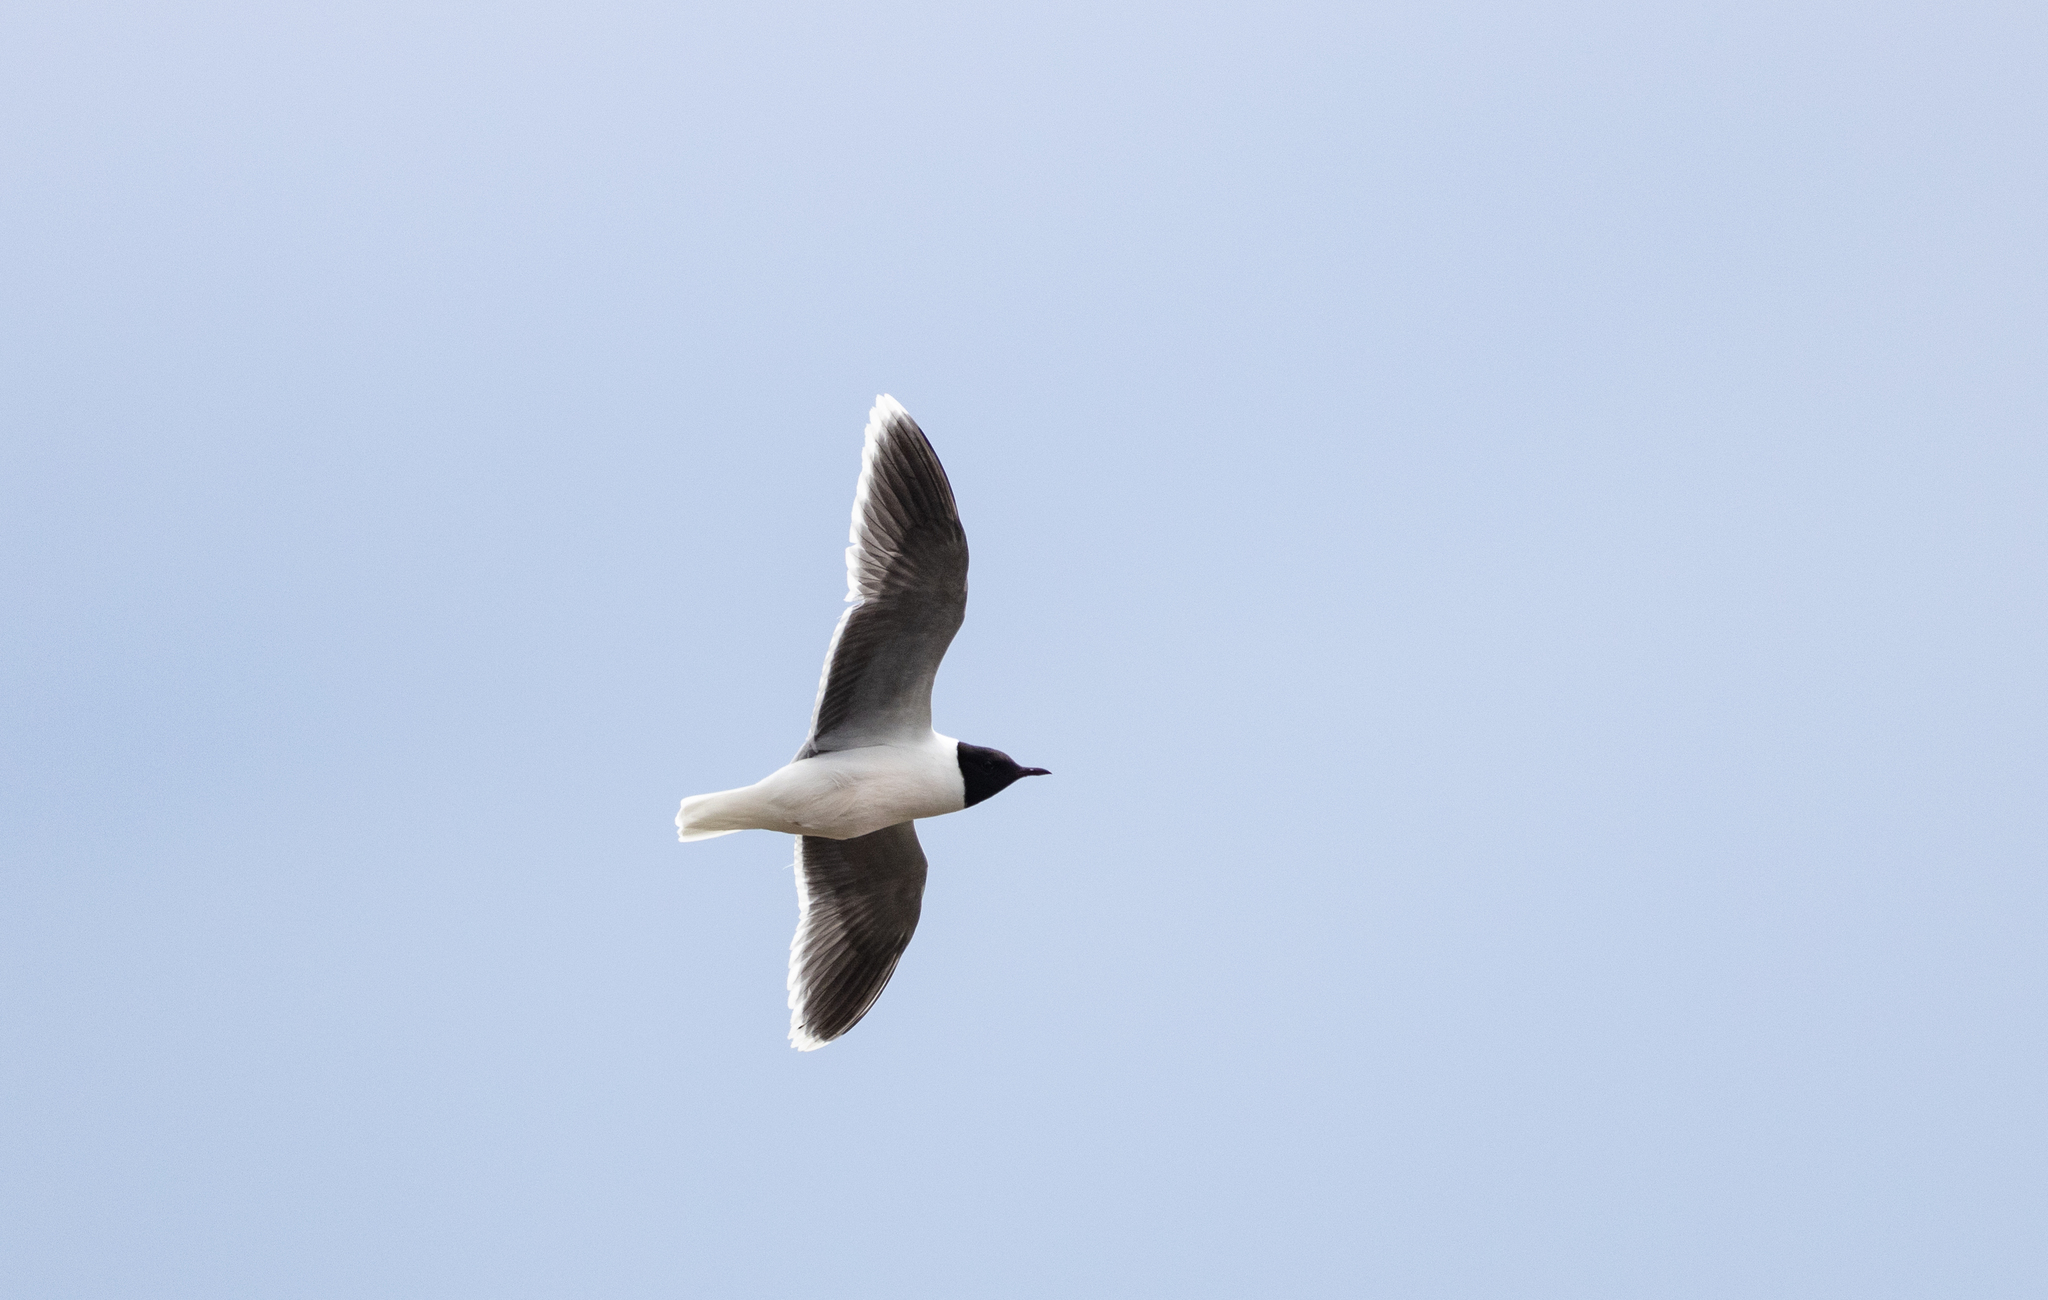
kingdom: Animalia
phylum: Chordata
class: Aves
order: Charadriiformes
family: Laridae
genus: Hydrocoloeus
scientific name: Hydrocoloeus minutus
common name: Little gull
